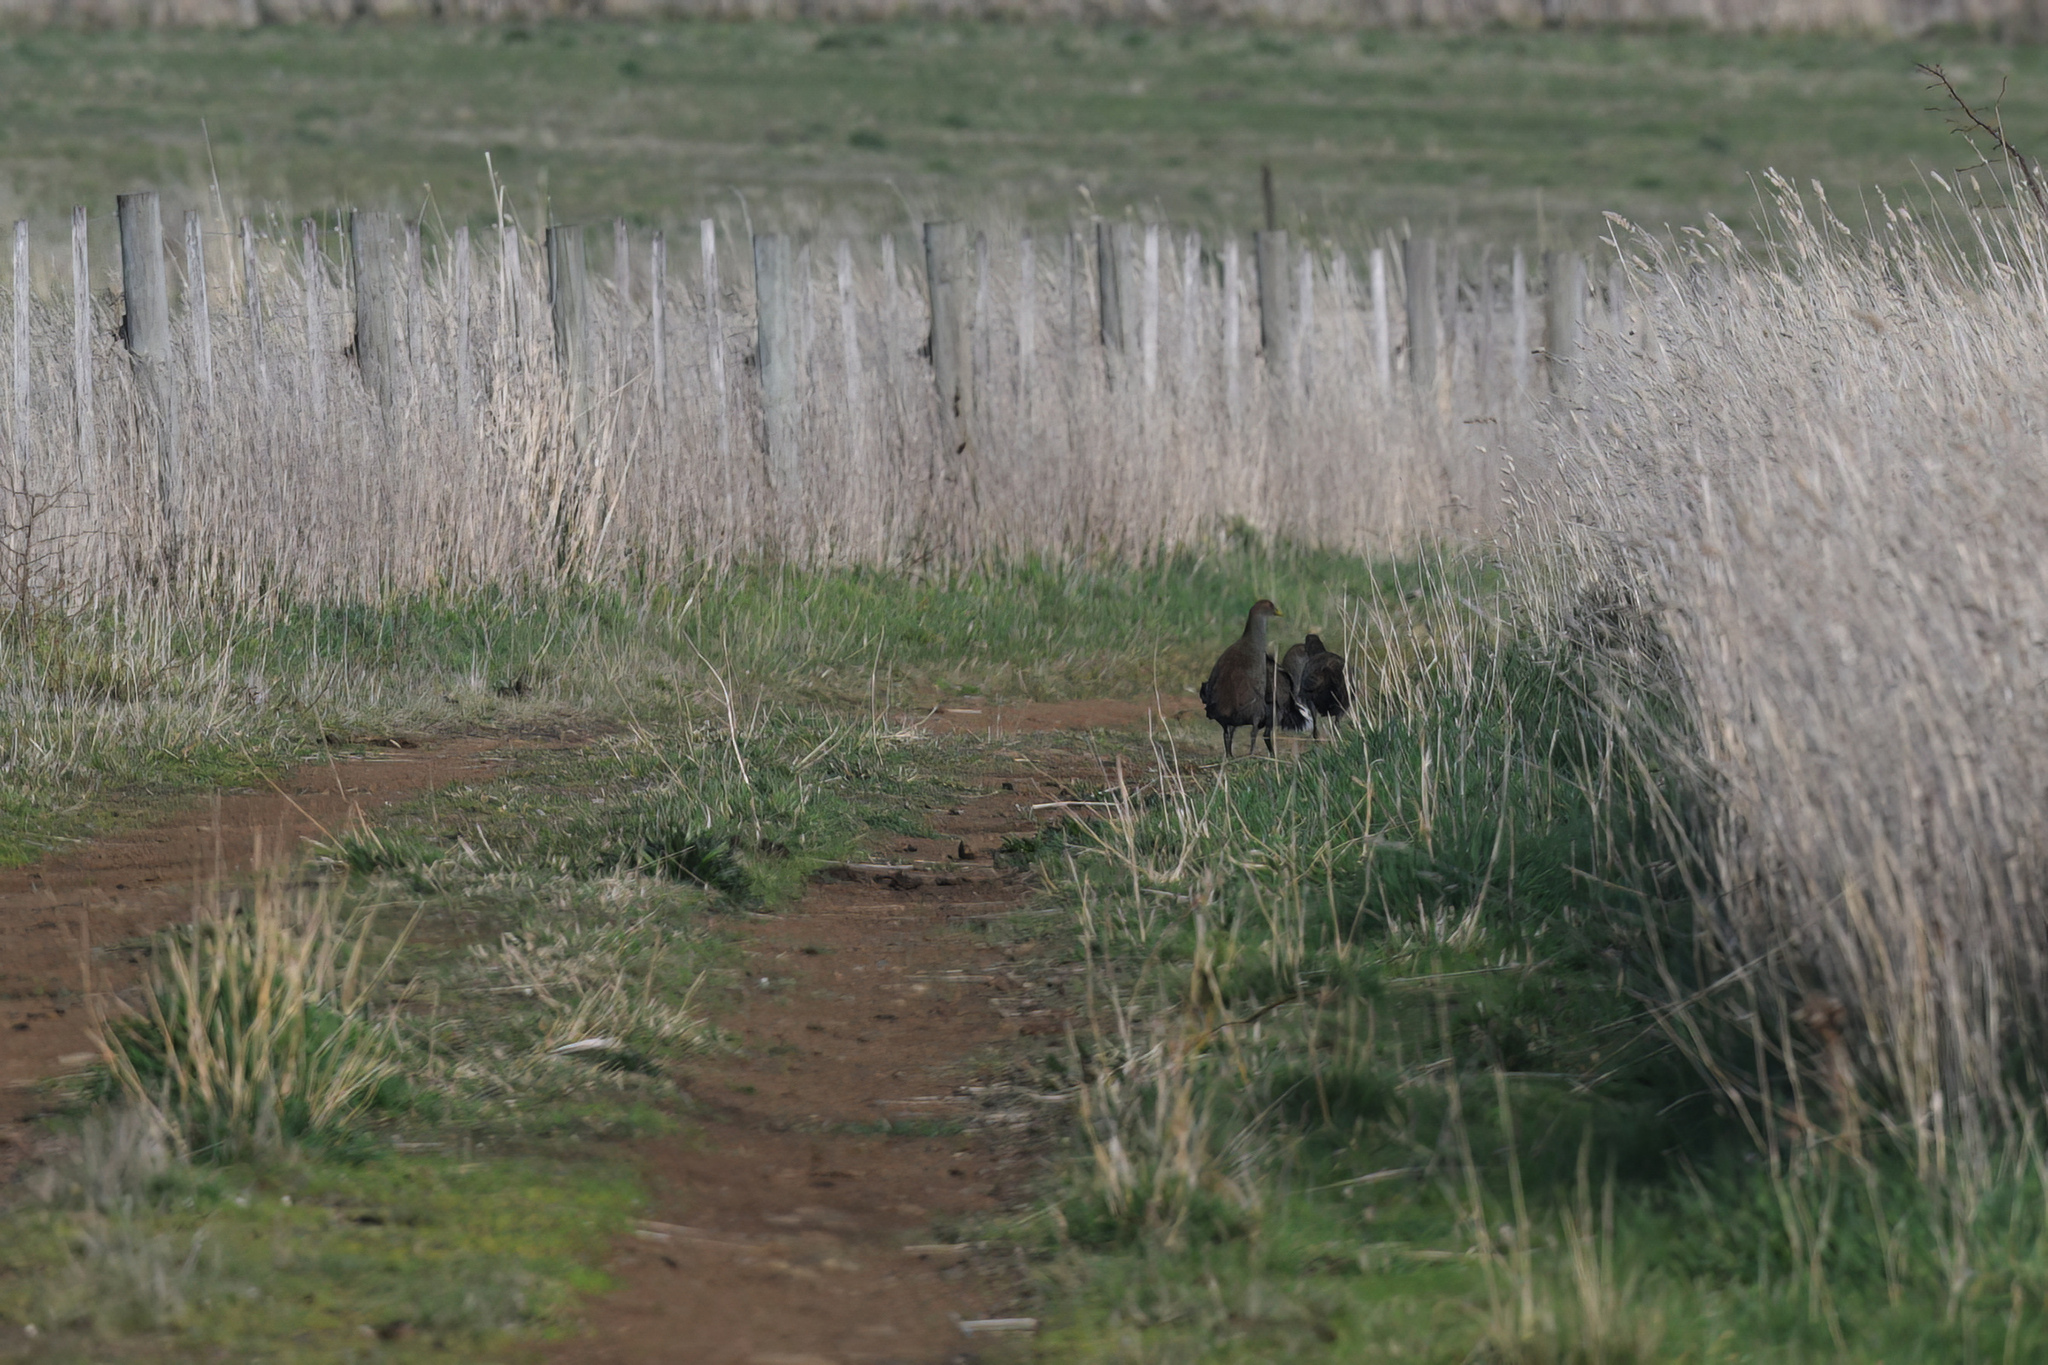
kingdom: Animalia
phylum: Chordata
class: Aves
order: Gruiformes
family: Rallidae
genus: Gallinula
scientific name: Gallinula mortierii
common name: Tasmanian nativehen
